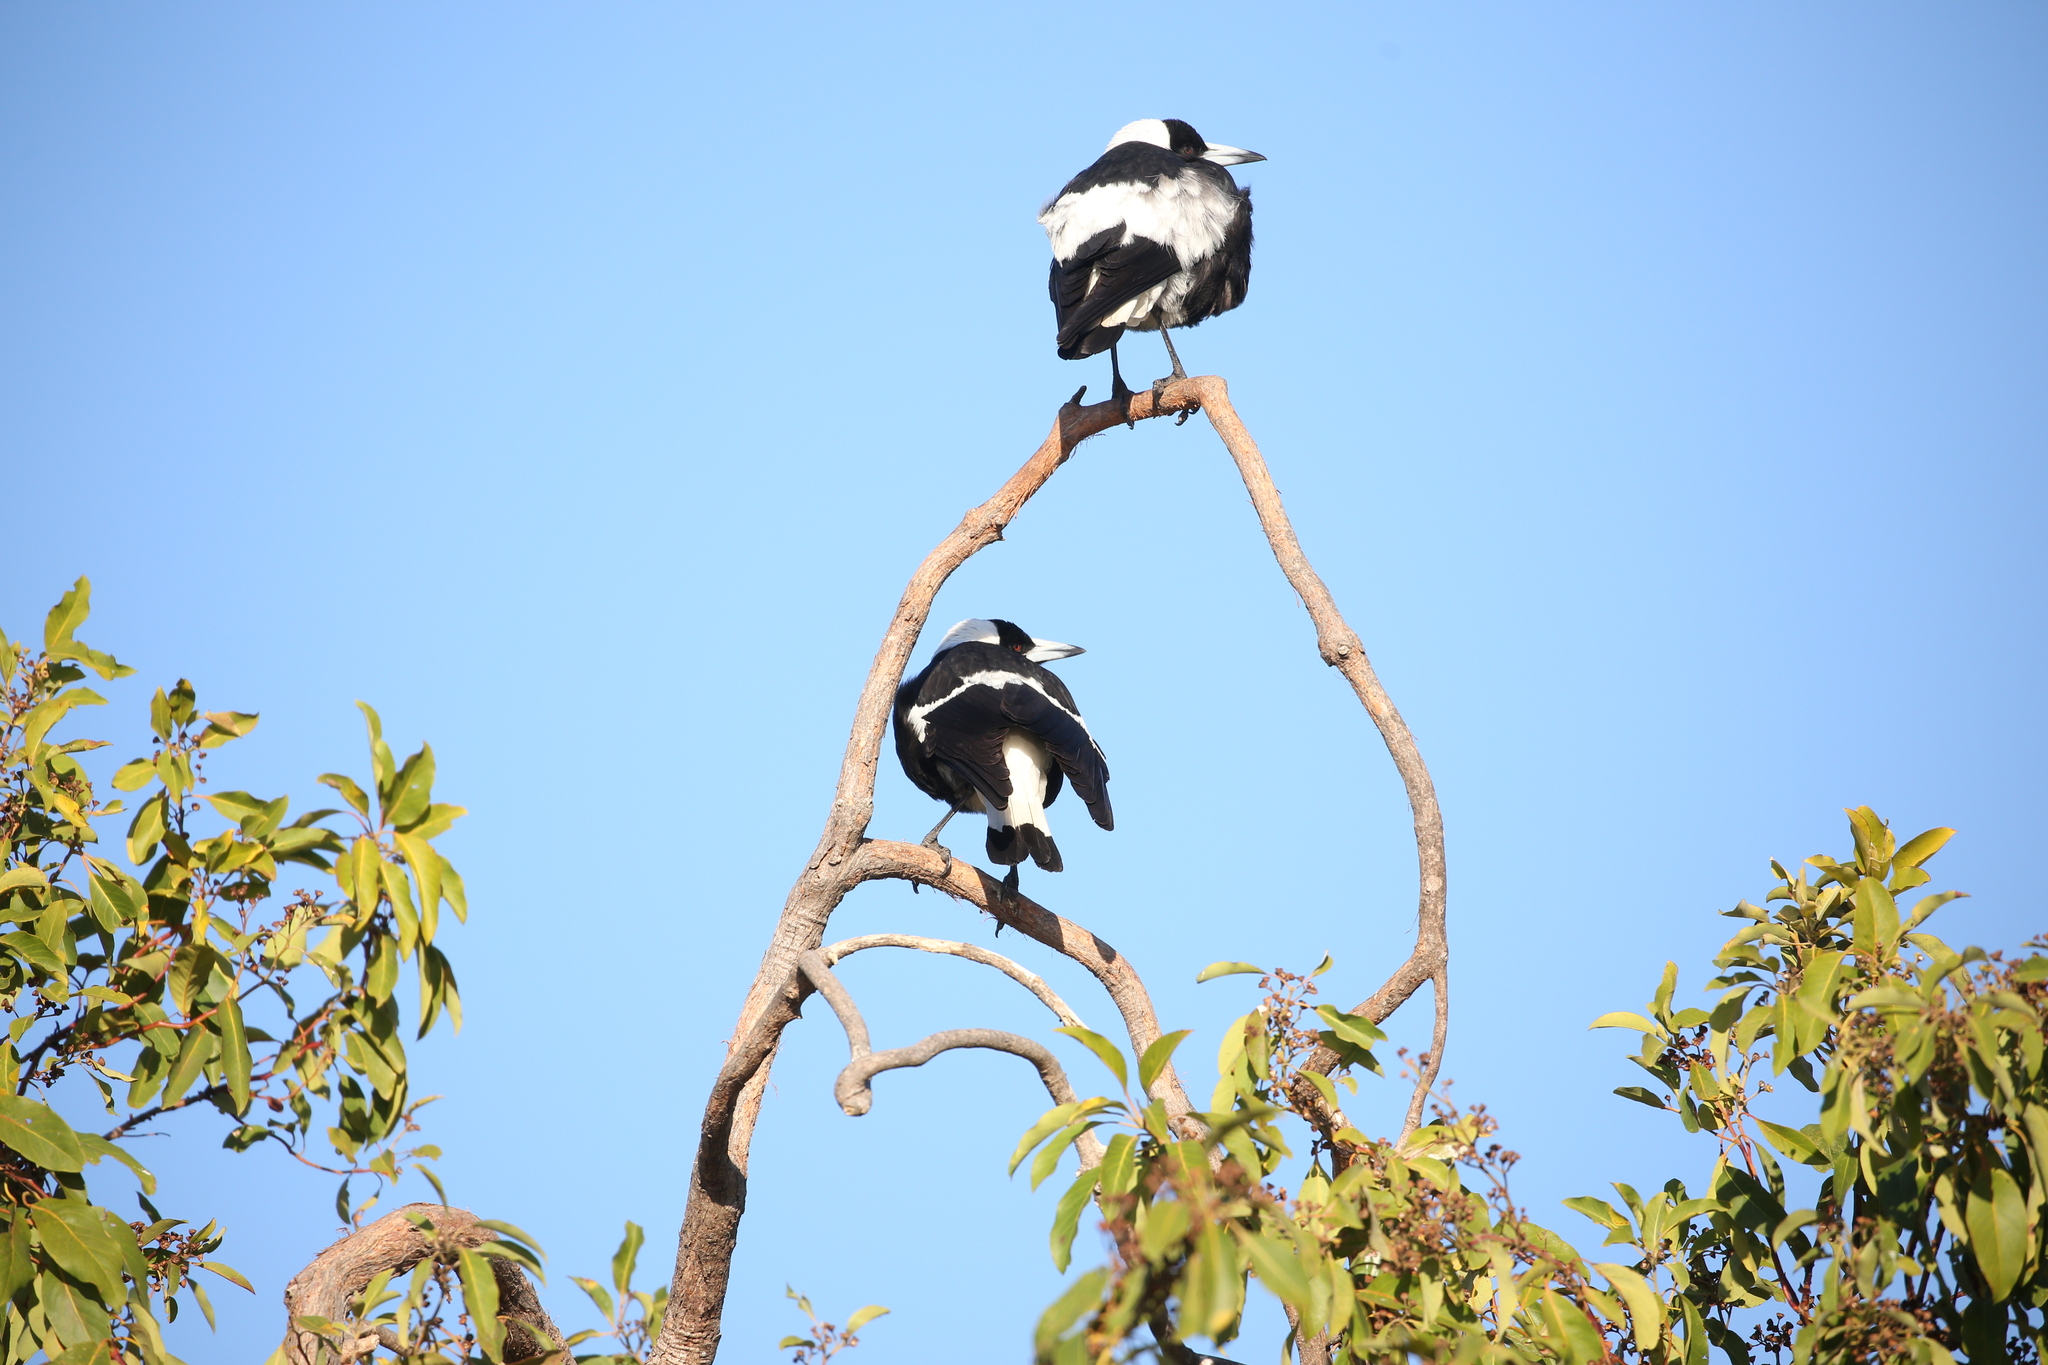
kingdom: Animalia
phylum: Chordata
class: Aves
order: Passeriformes
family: Cracticidae
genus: Gymnorhina
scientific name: Gymnorhina tibicen
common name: Australian magpie
